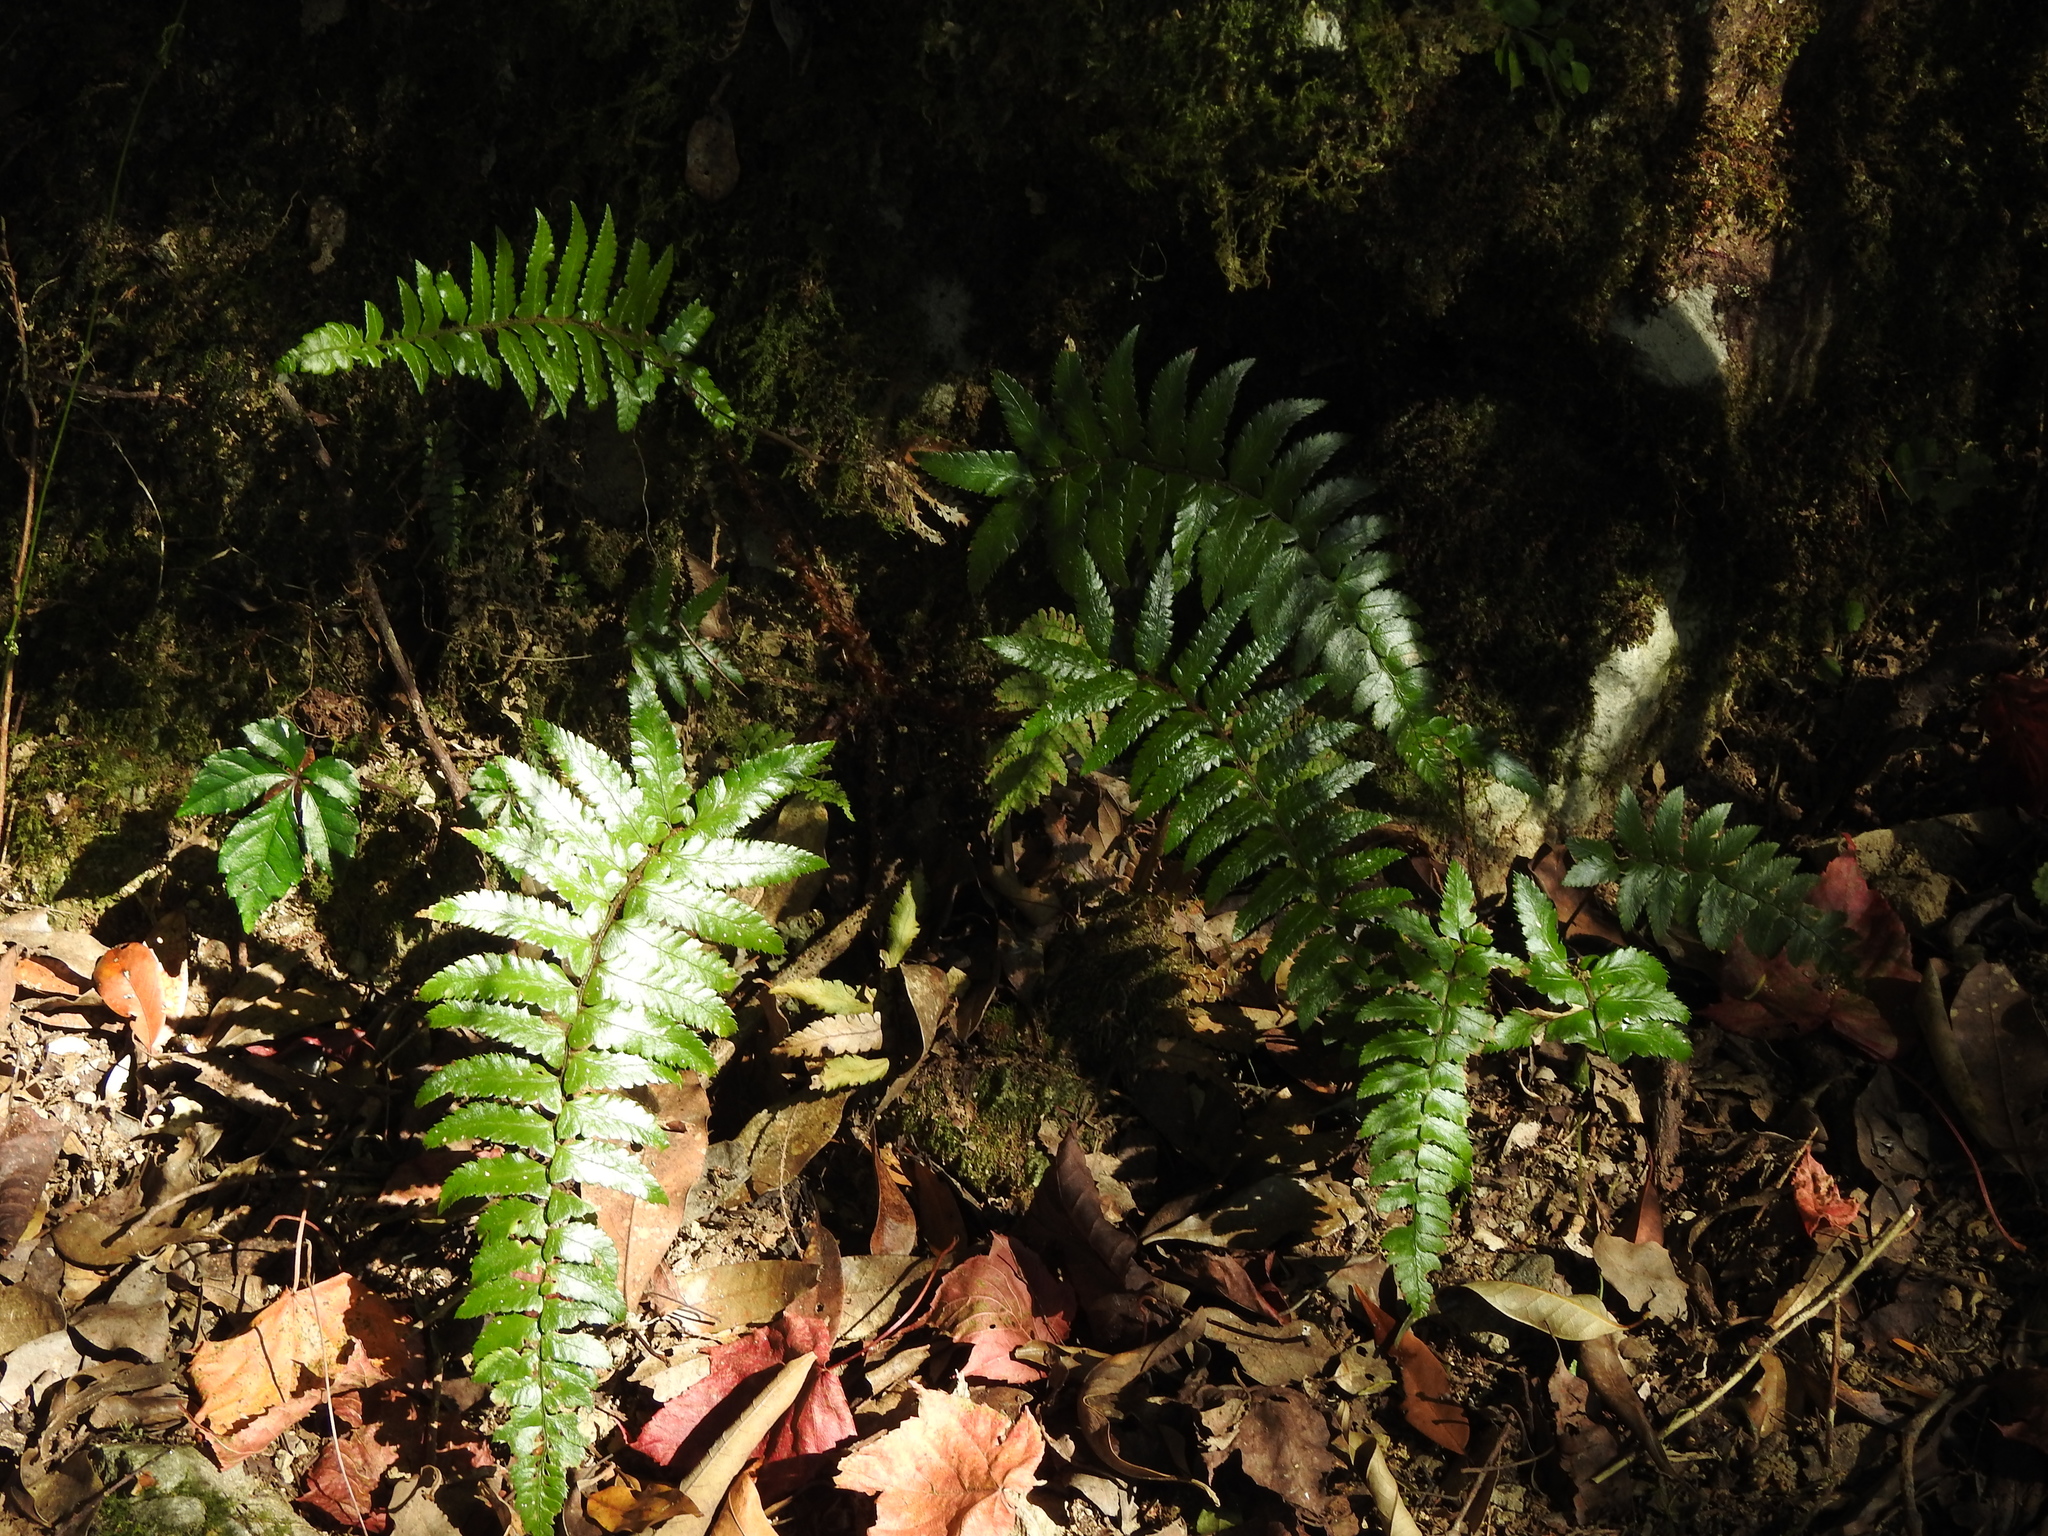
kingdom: Plantae
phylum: Tracheophyta
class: Polypodiopsida
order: Polypodiales
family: Dryopteridaceae
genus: Polystichum
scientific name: Polystichum biaristatum
